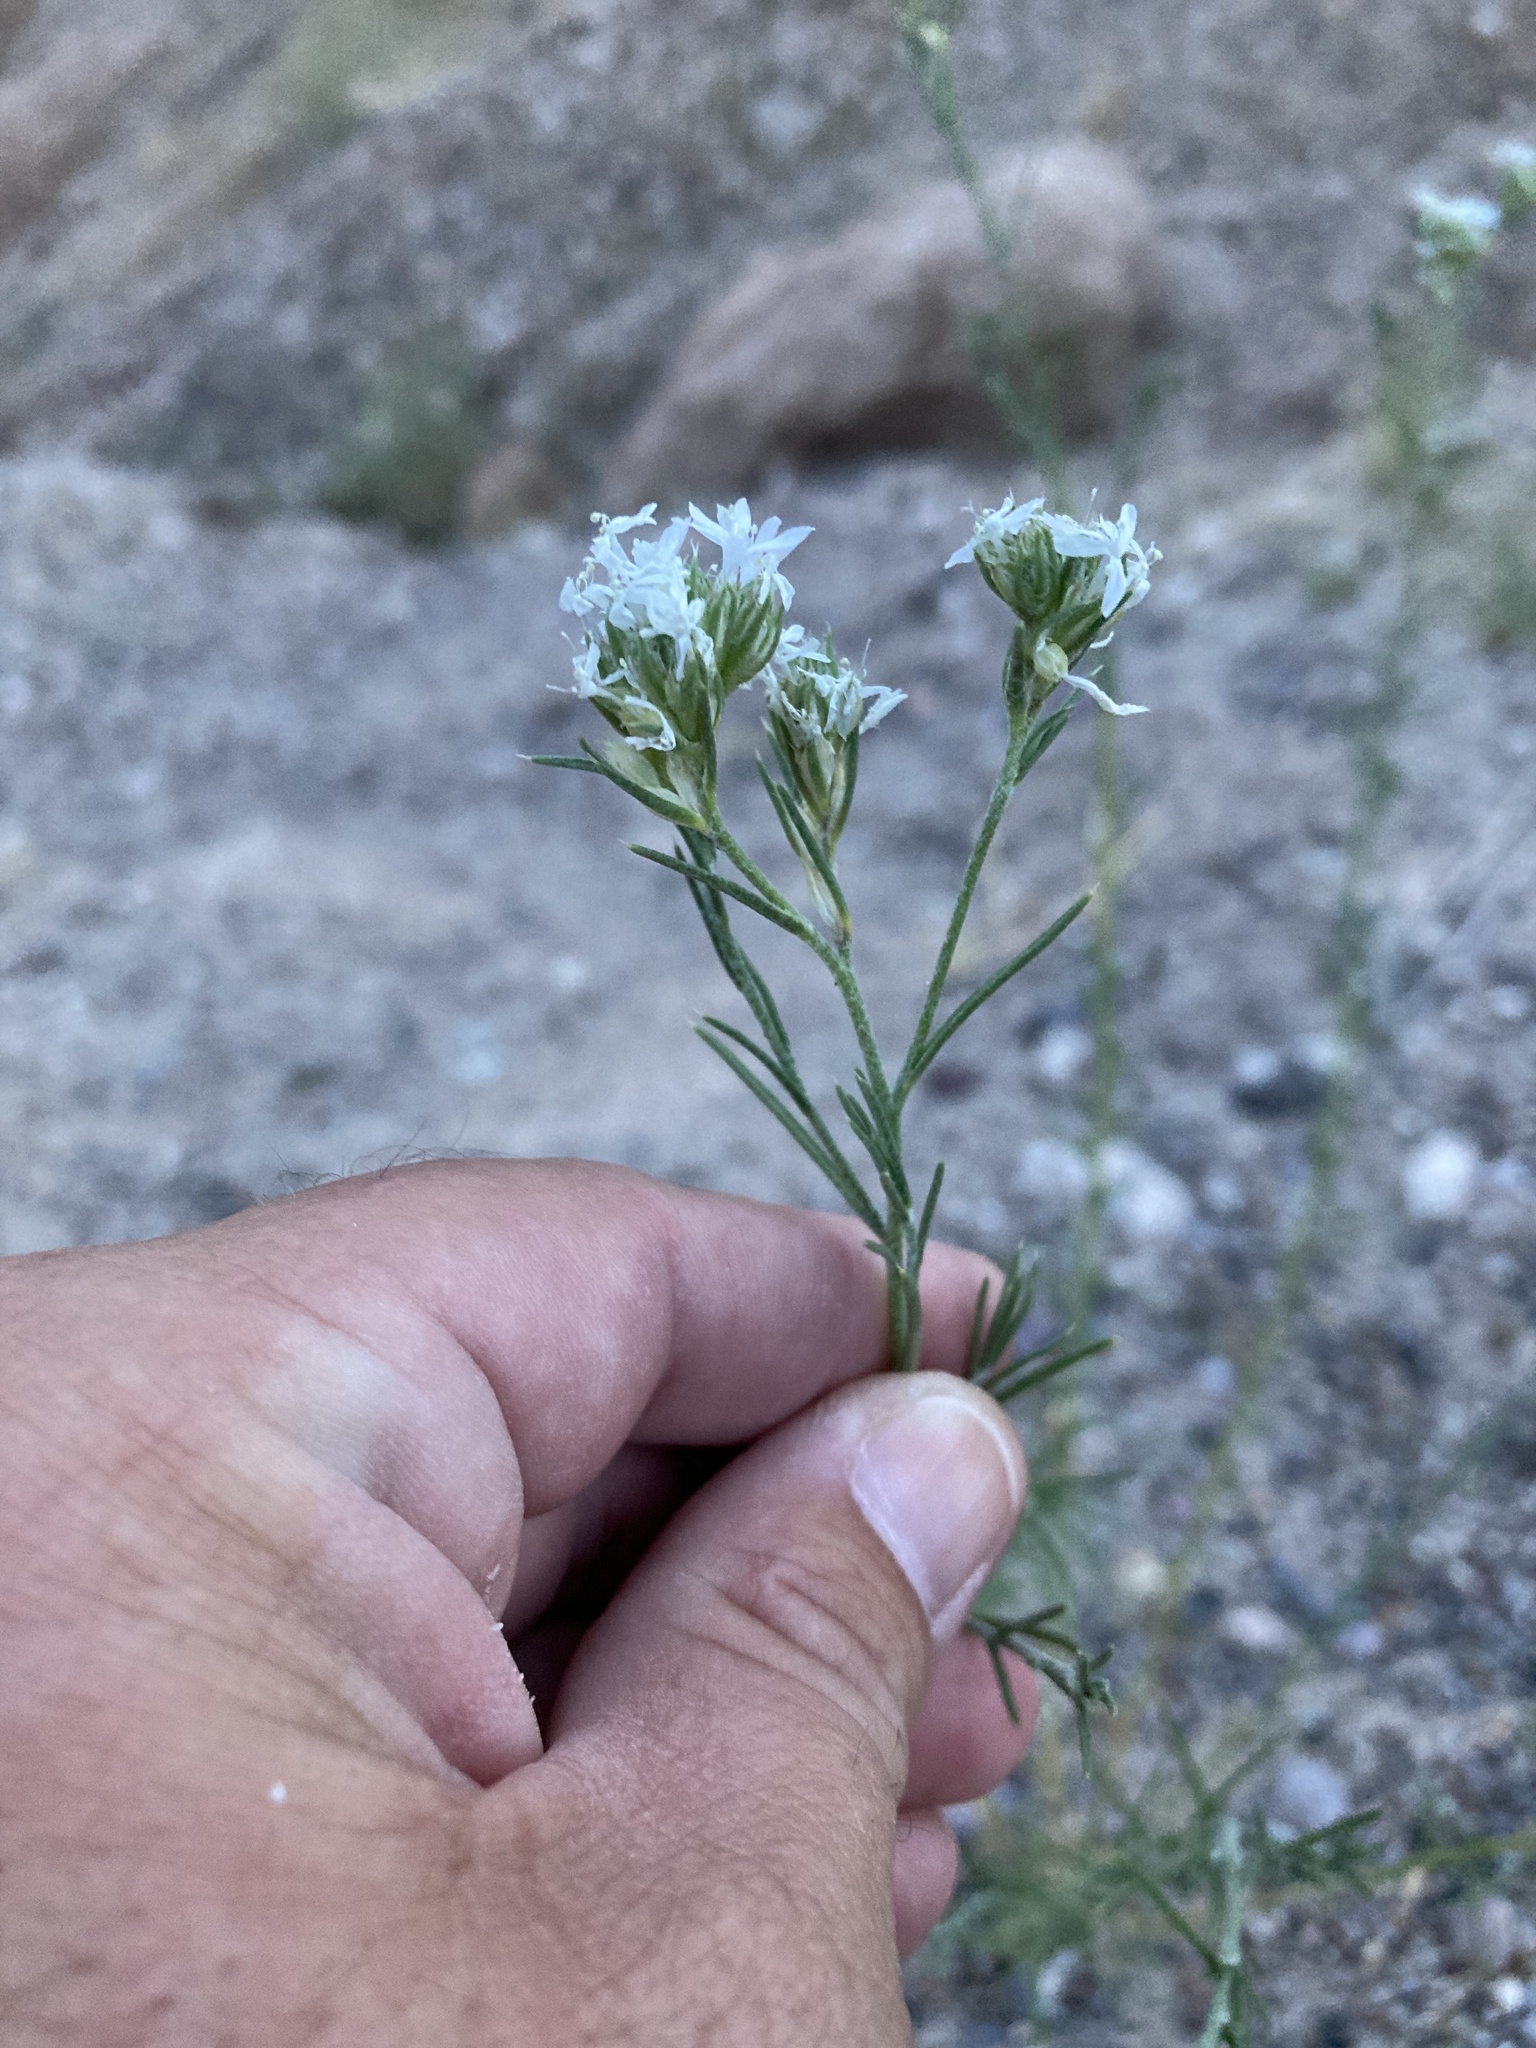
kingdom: Plantae
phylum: Tracheophyta
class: Magnoliopsida
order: Ericales
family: Polemoniaceae
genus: Ipomopsis
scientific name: Ipomopsis wrightii
